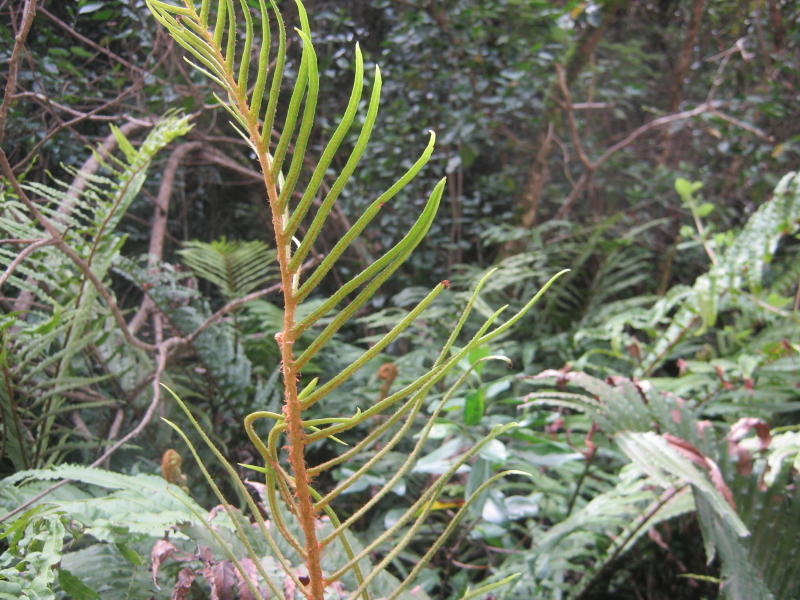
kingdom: Plantae
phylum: Tracheophyta
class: Polypodiopsida
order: Polypodiales
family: Blechnaceae
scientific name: Blechnaceae
